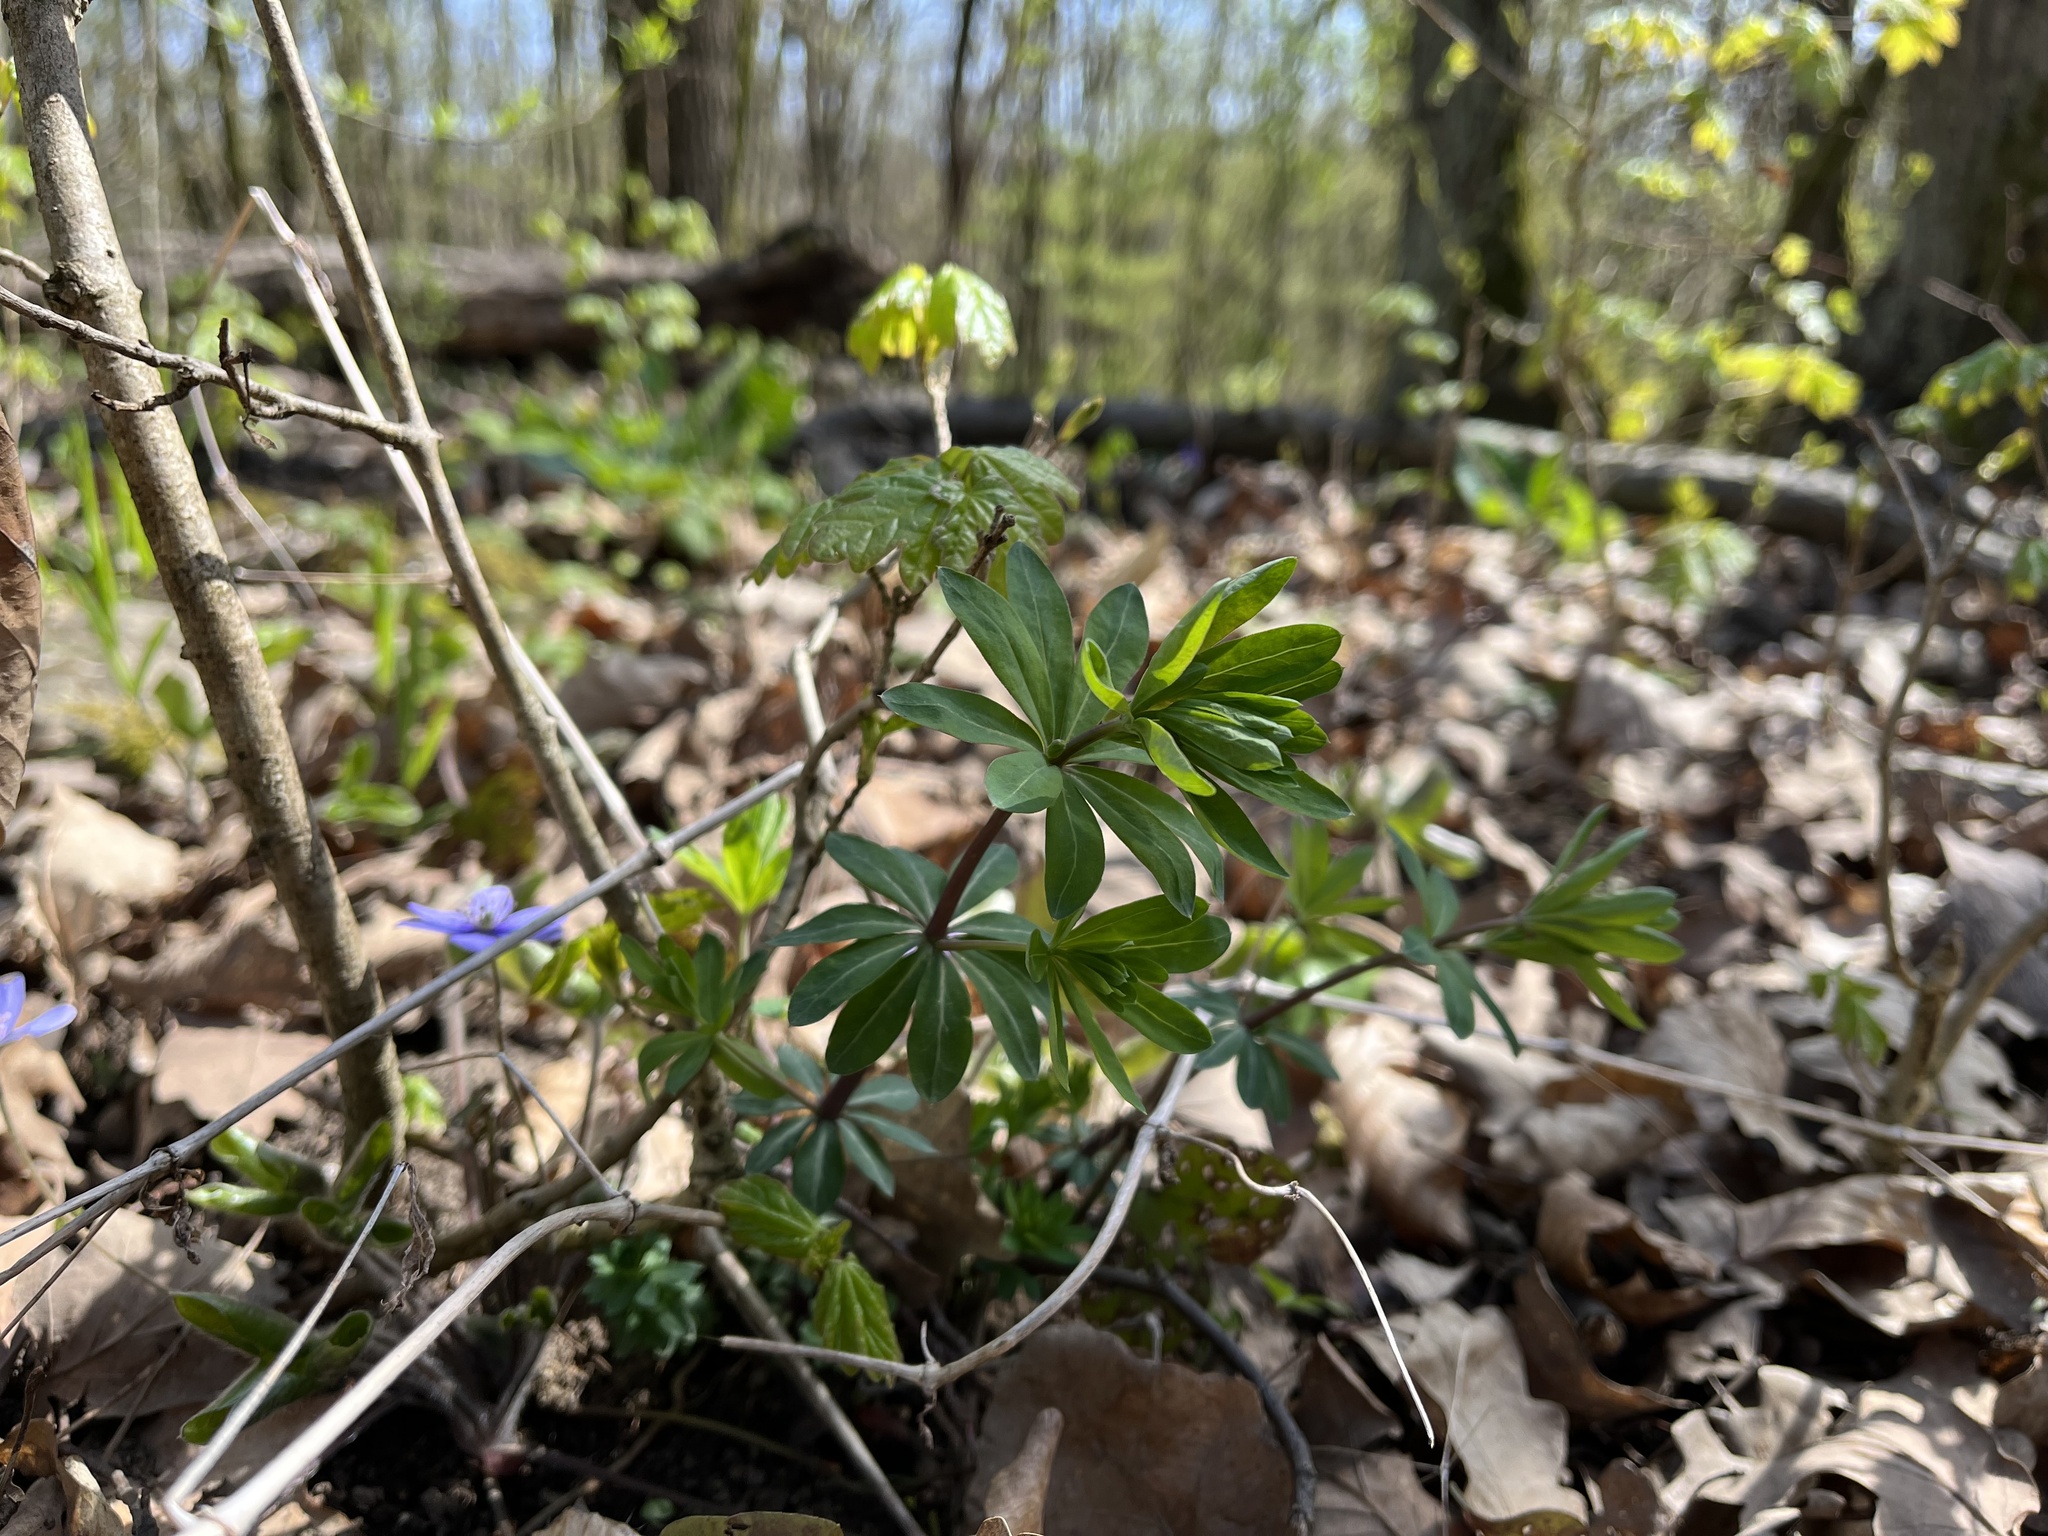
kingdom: Plantae
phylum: Tracheophyta
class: Magnoliopsida
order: Gentianales
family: Rubiaceae
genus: Galium
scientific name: Galium sylvaticum
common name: Wood bedstraw
